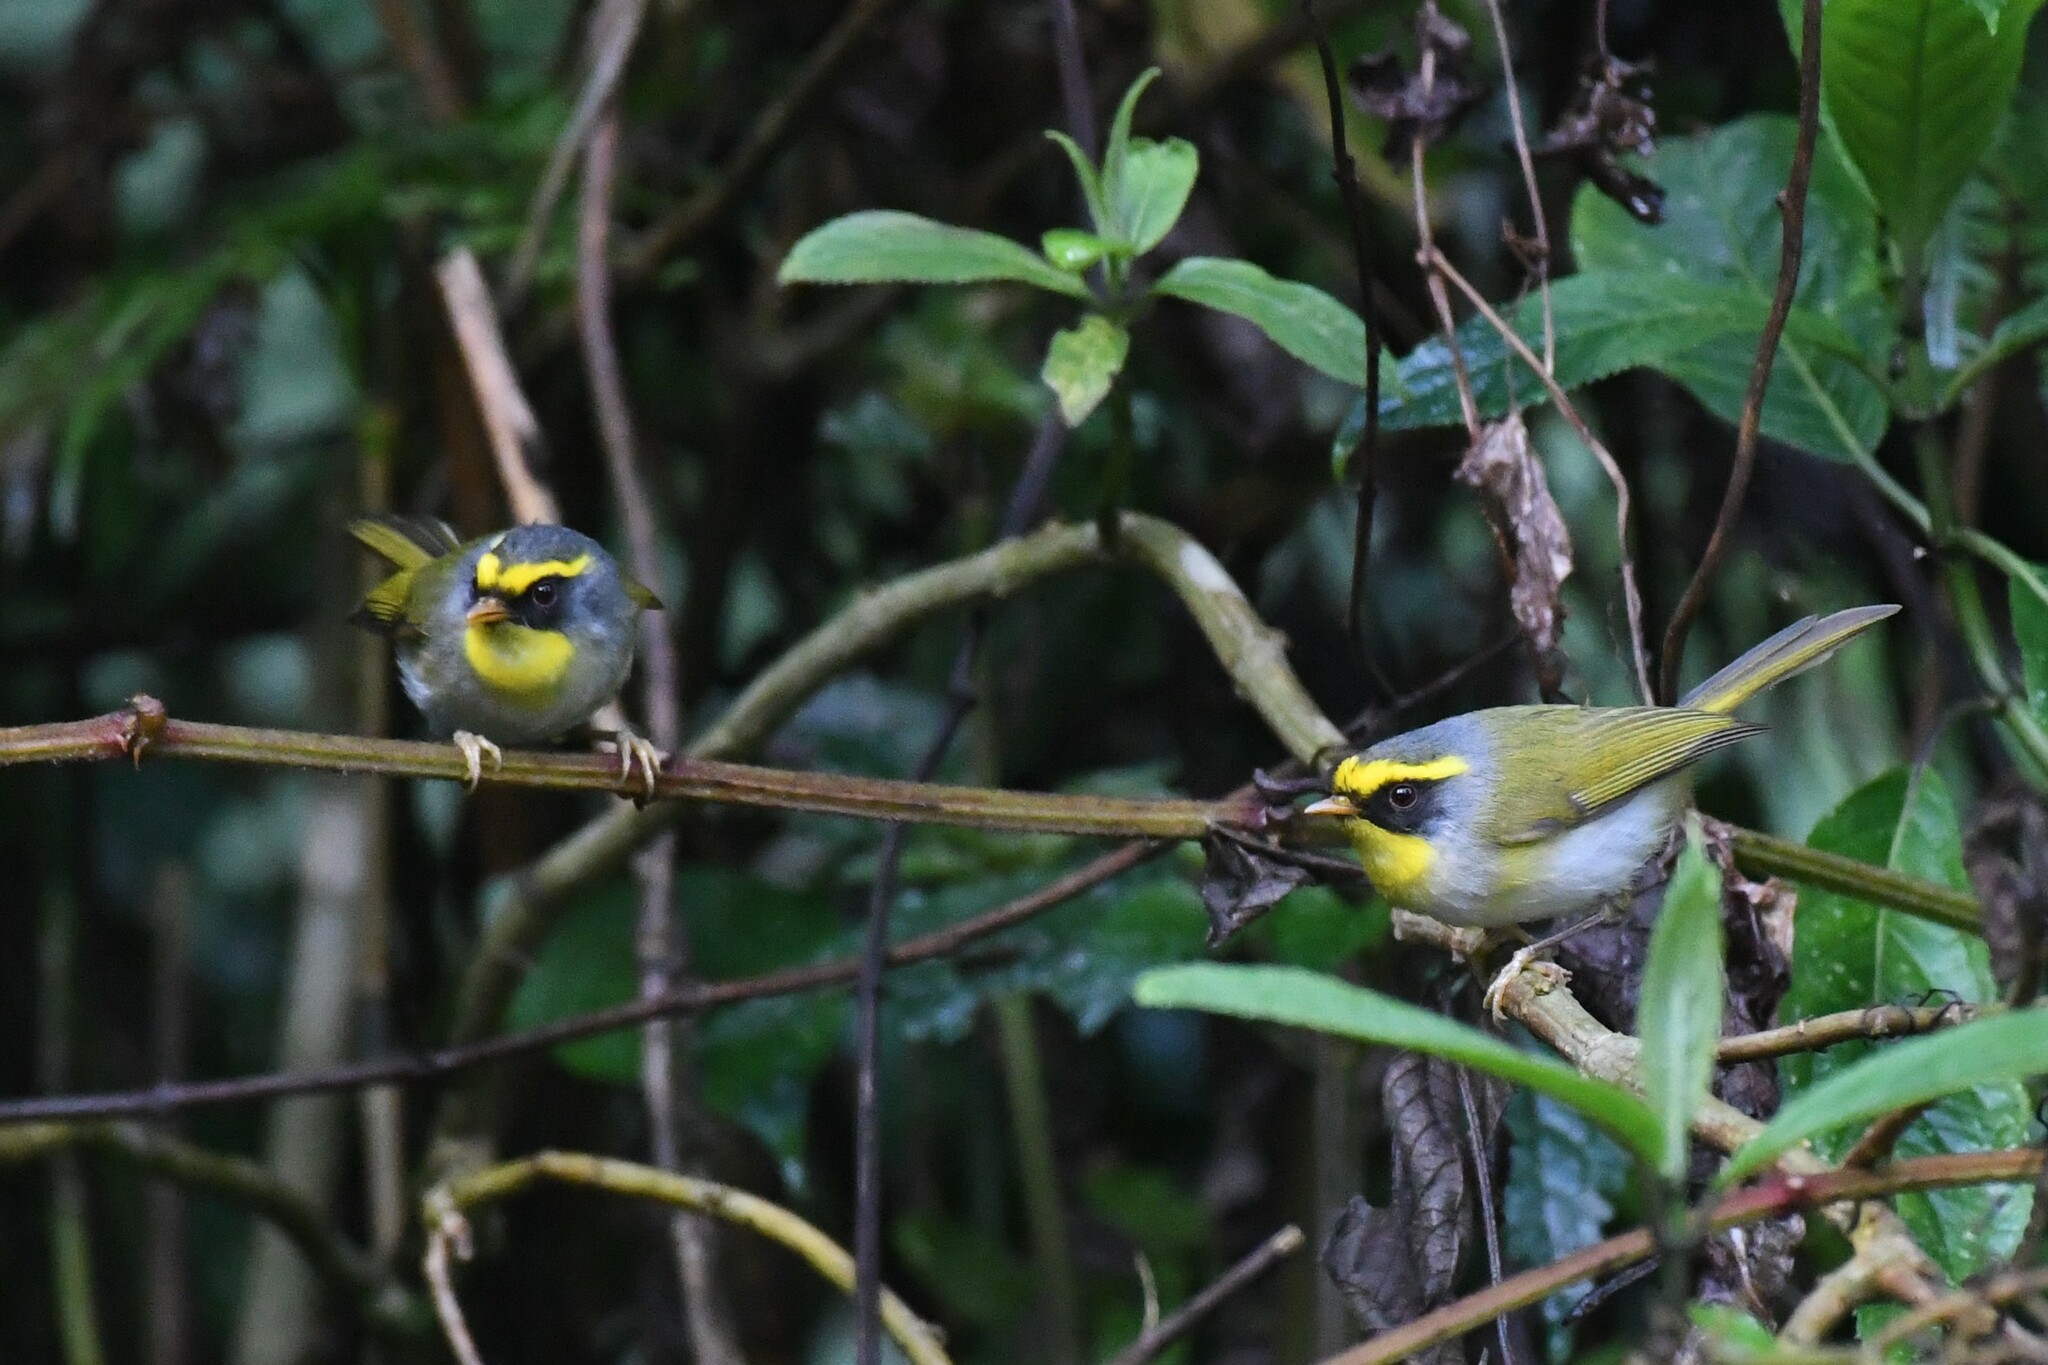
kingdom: Animalia
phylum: Chordata
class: Aves
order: Passeriformes
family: Cettiidae
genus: Abroscopus
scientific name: Abroscopus schisticeps
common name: Black-faced warbler
